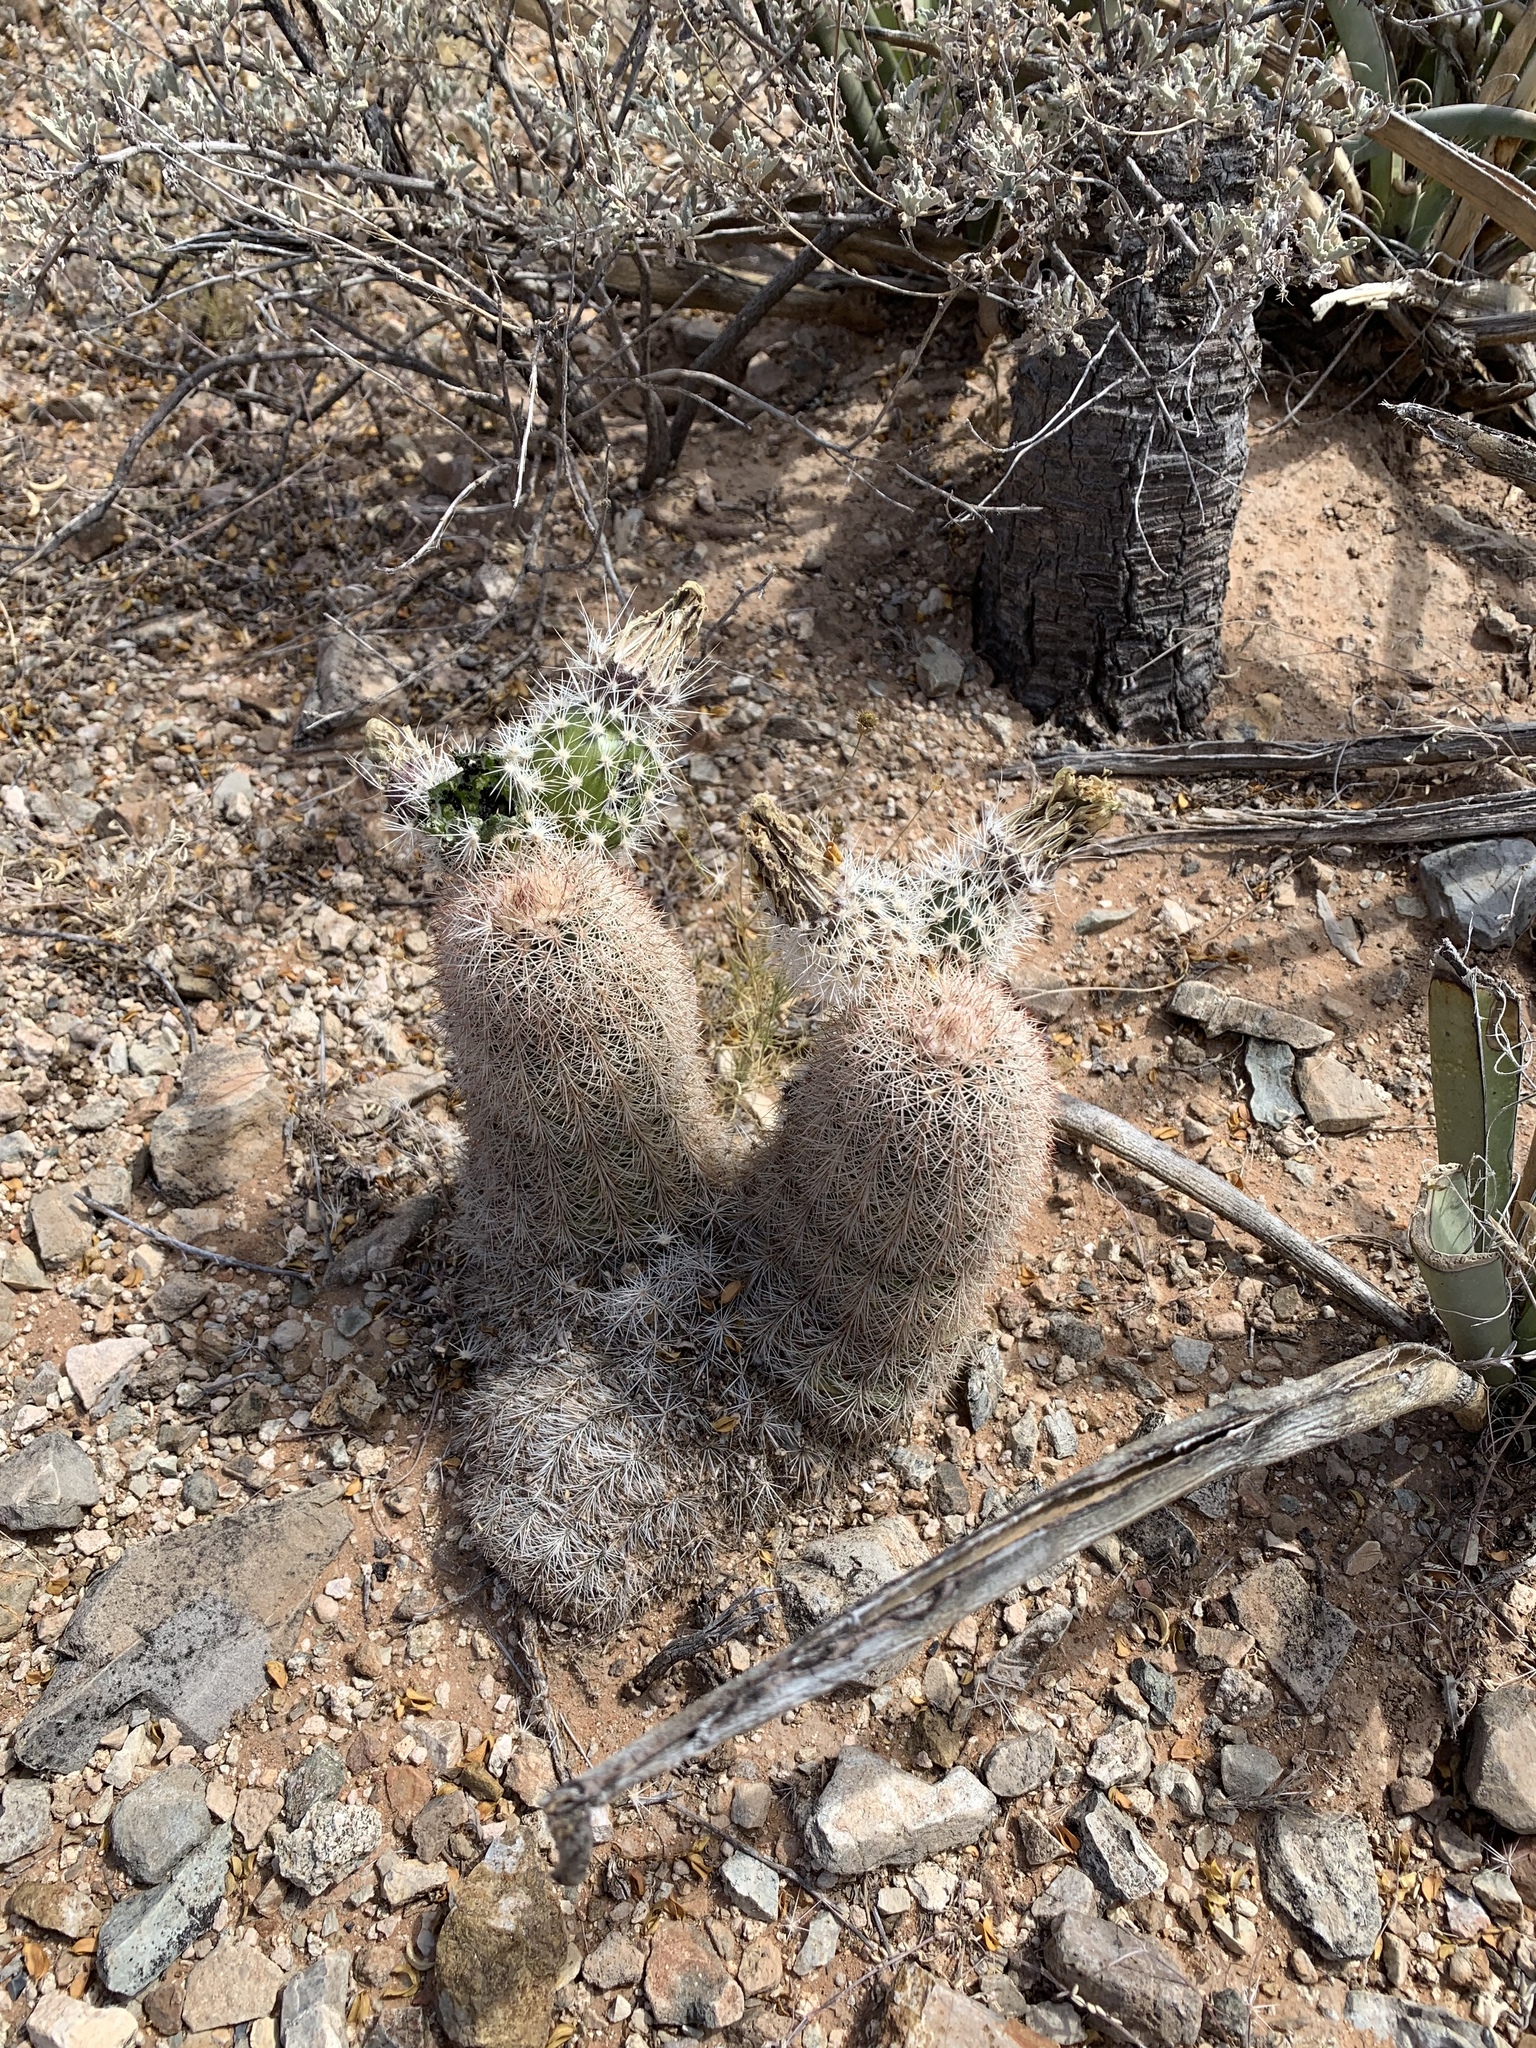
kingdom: Plantae
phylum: Tracheophyta
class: Magnoliopsida
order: Caryophyllales
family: Cactaceae
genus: Echinocereus
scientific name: Echinocereus dasyacanthus
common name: Spiny hedgehog cactus
